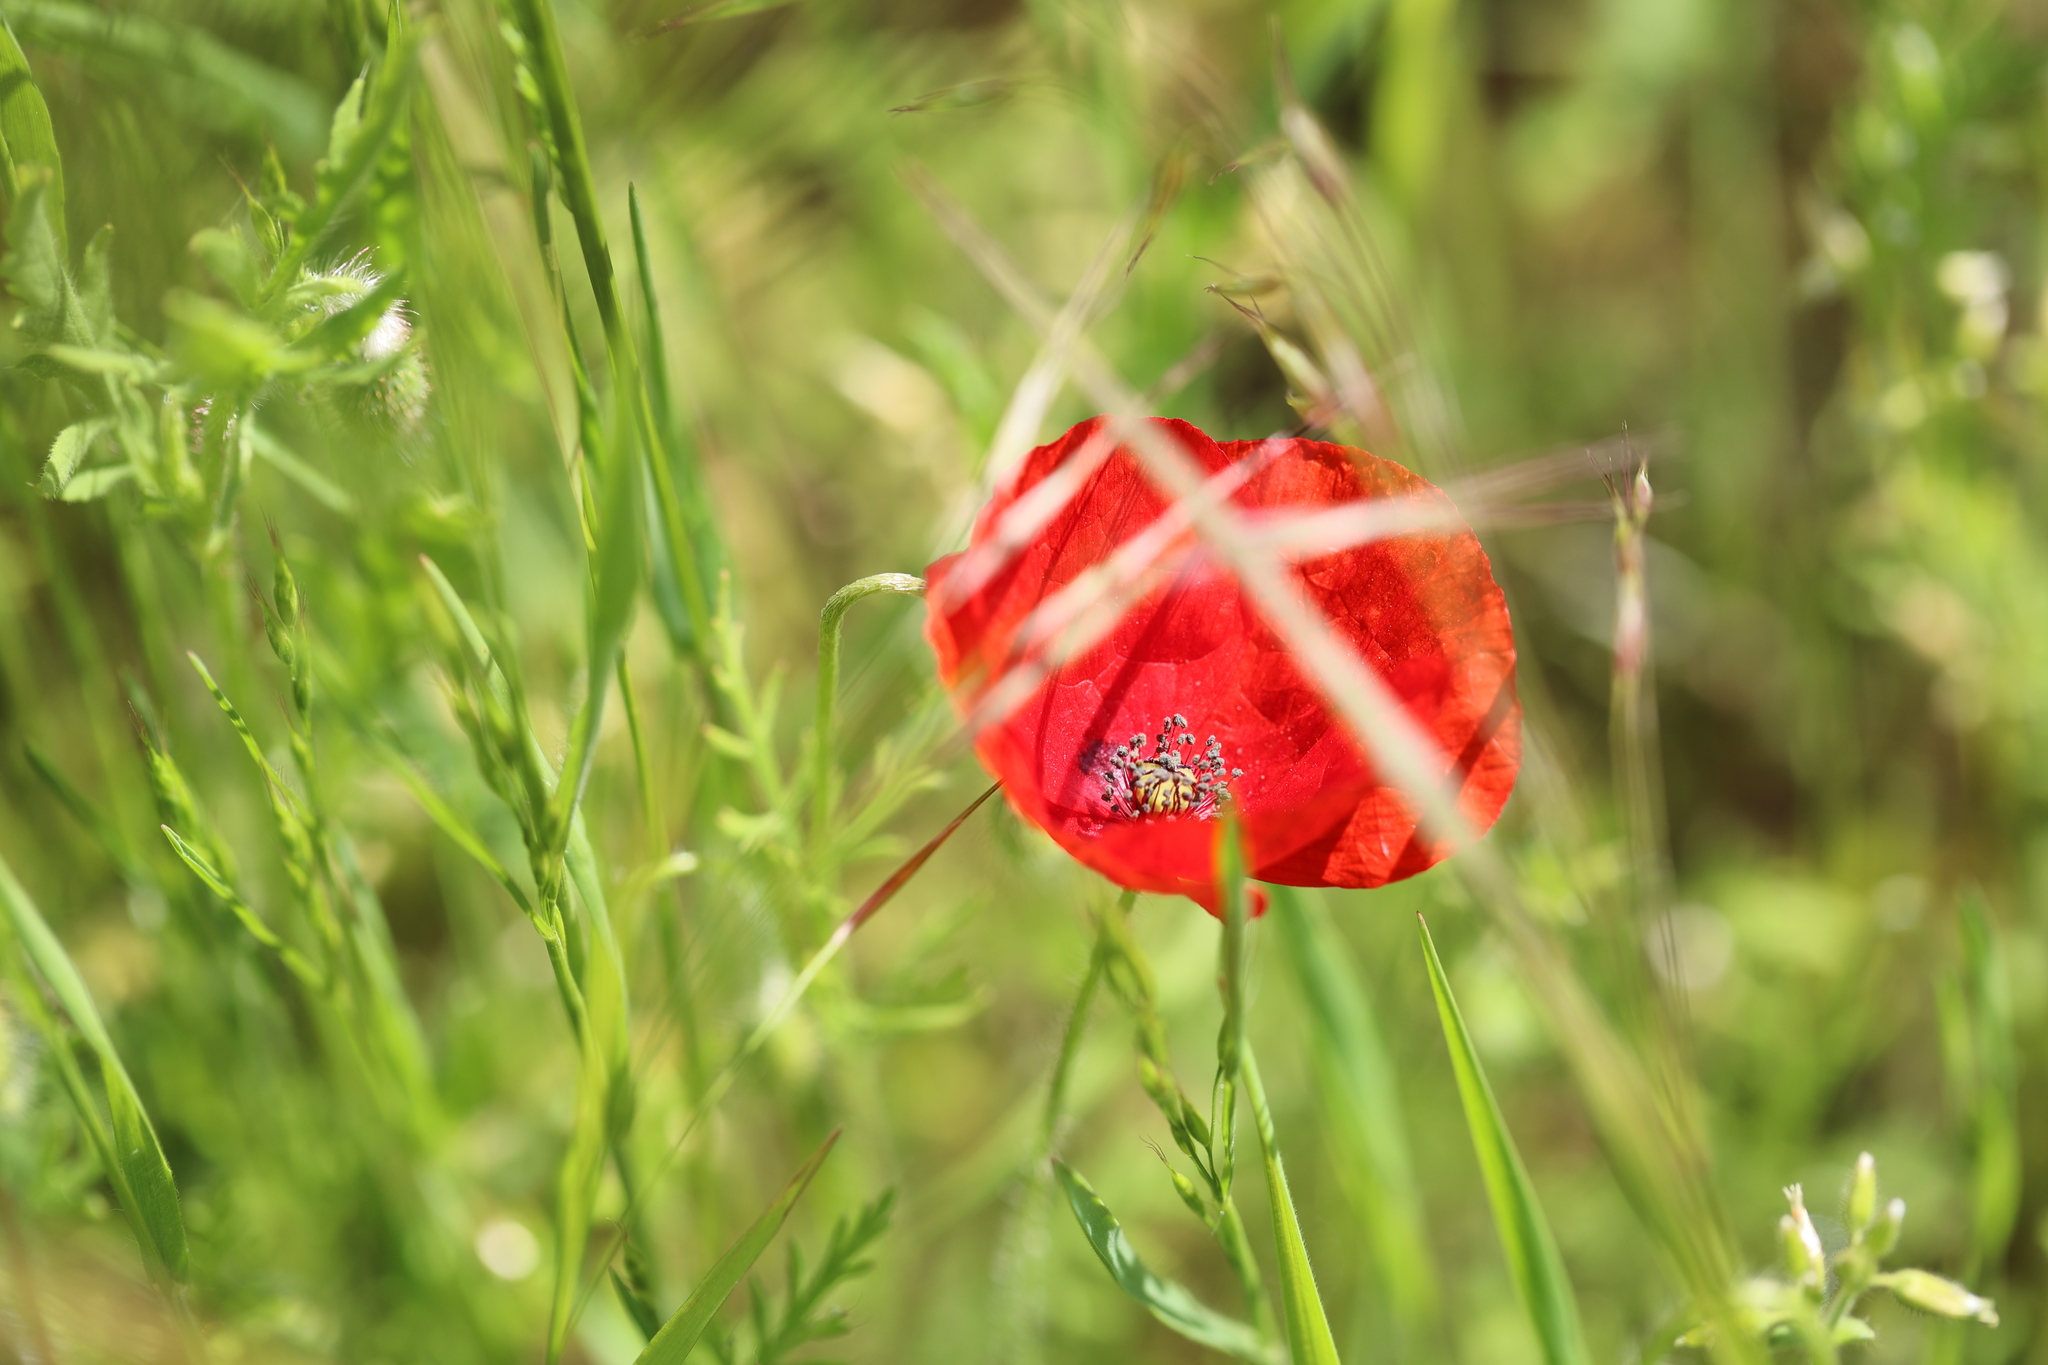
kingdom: Plantae
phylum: Tracheophyta
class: Magnoliopsida
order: Ranunculales
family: Papaveraceae
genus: Papaver
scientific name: Papaver rhoeas
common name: Corn poppy
